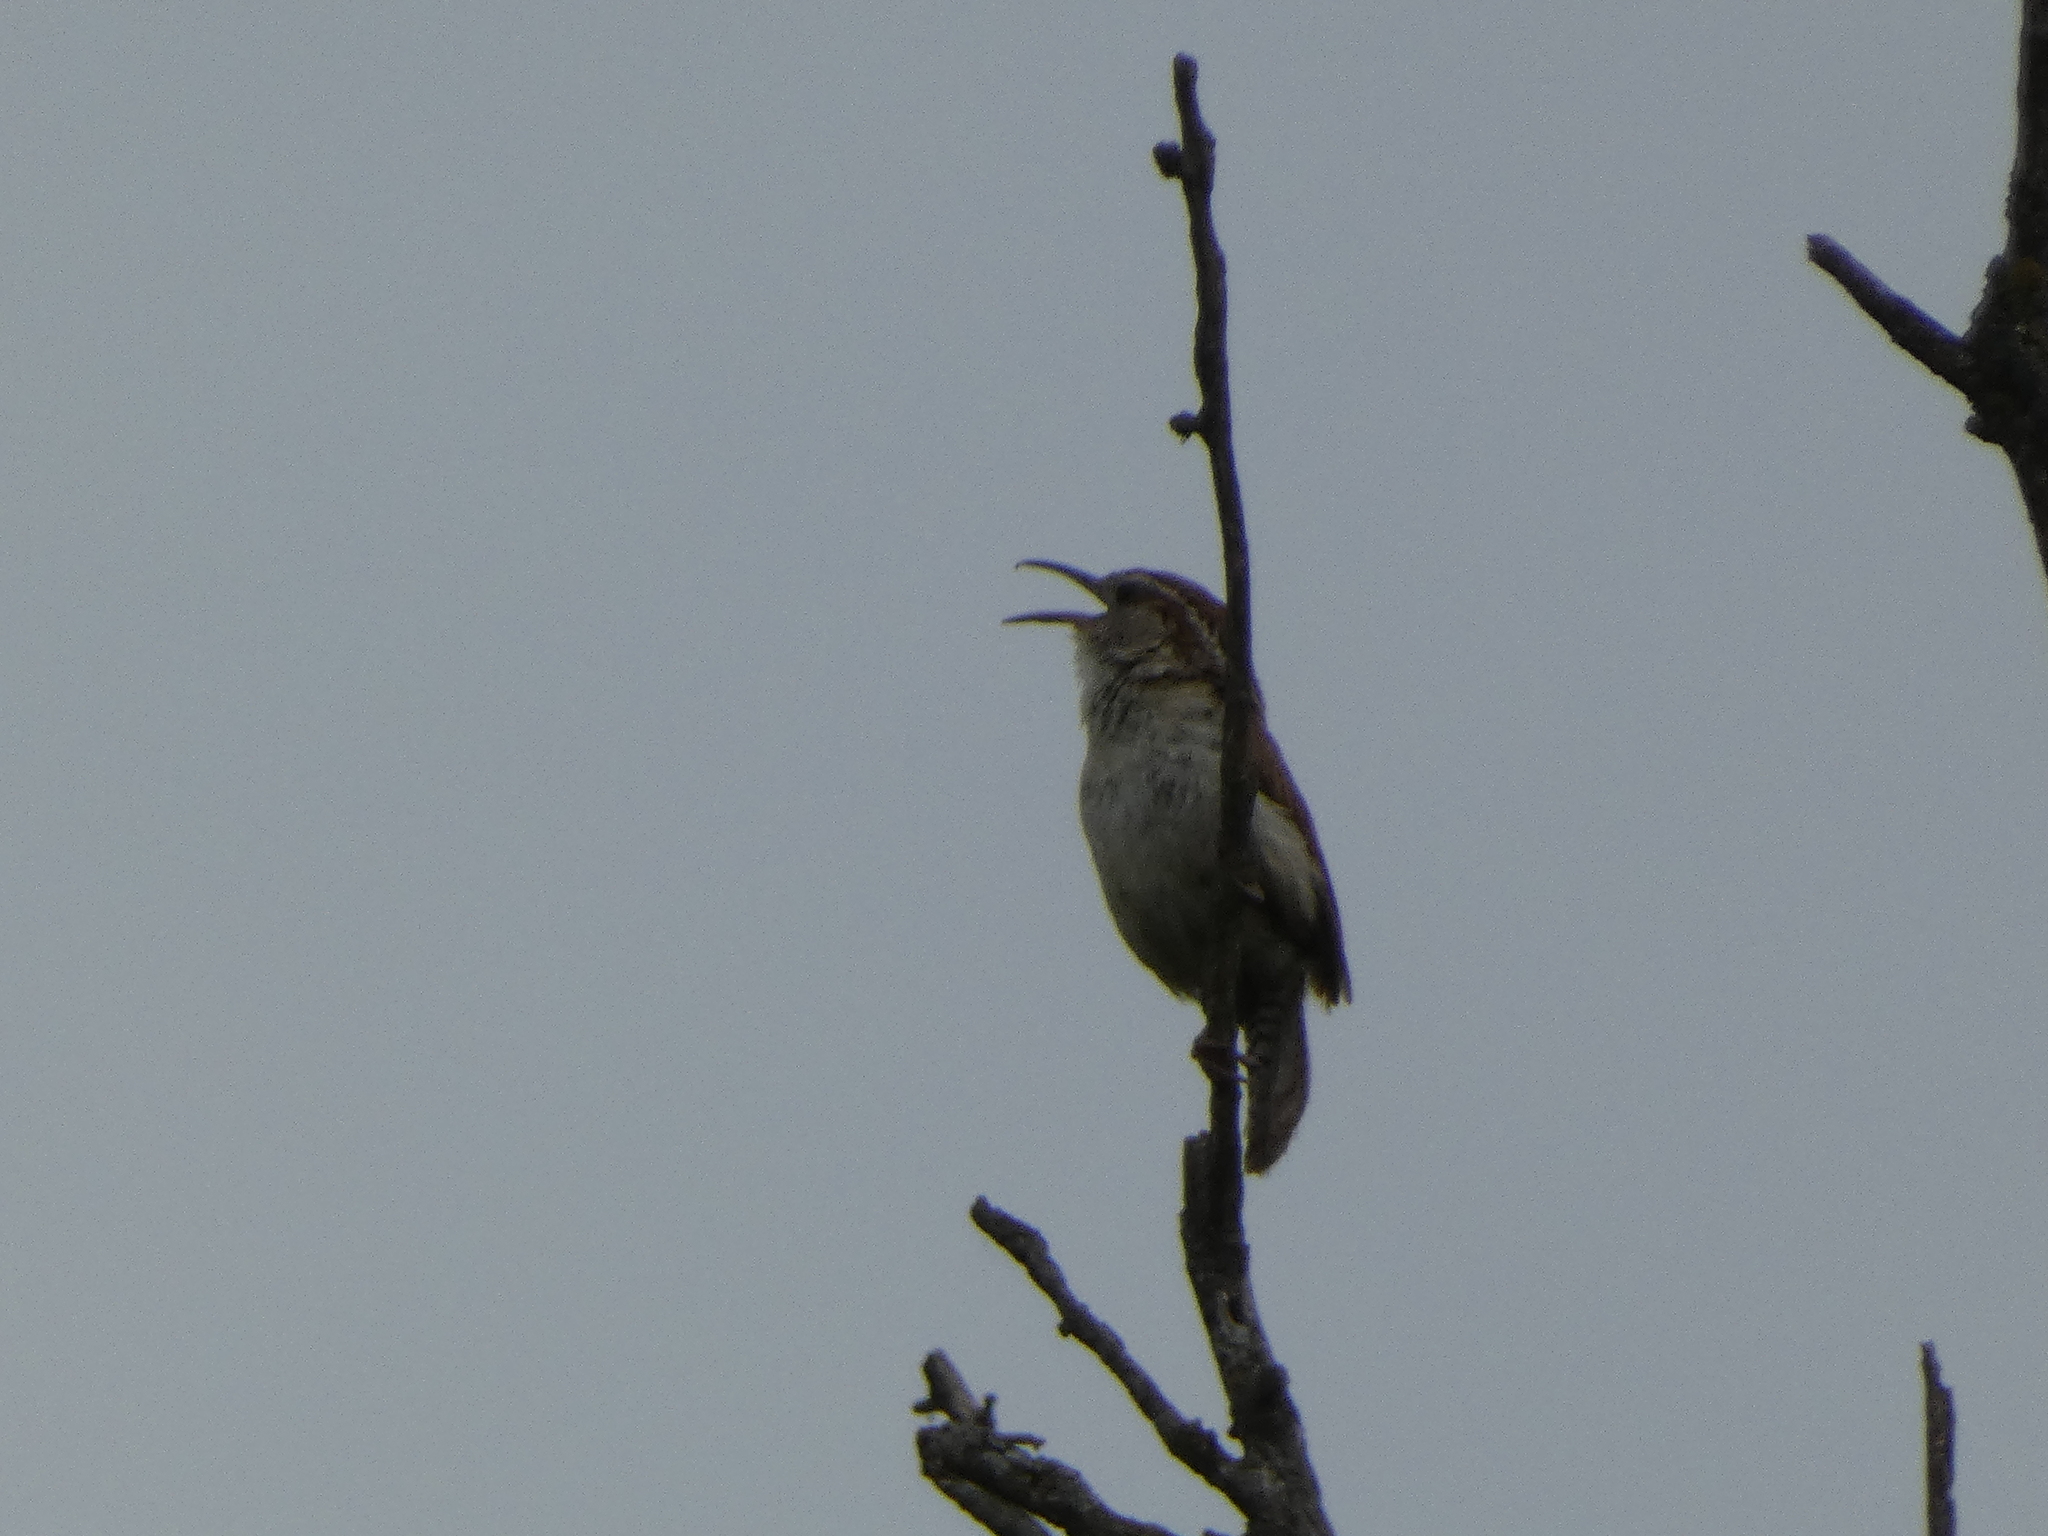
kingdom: Animalia
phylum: Chordata
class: Aves
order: Passeriformes
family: Troglodytidae
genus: Thryothorus
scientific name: Thryothorus ludovicianus
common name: Carolina wren
